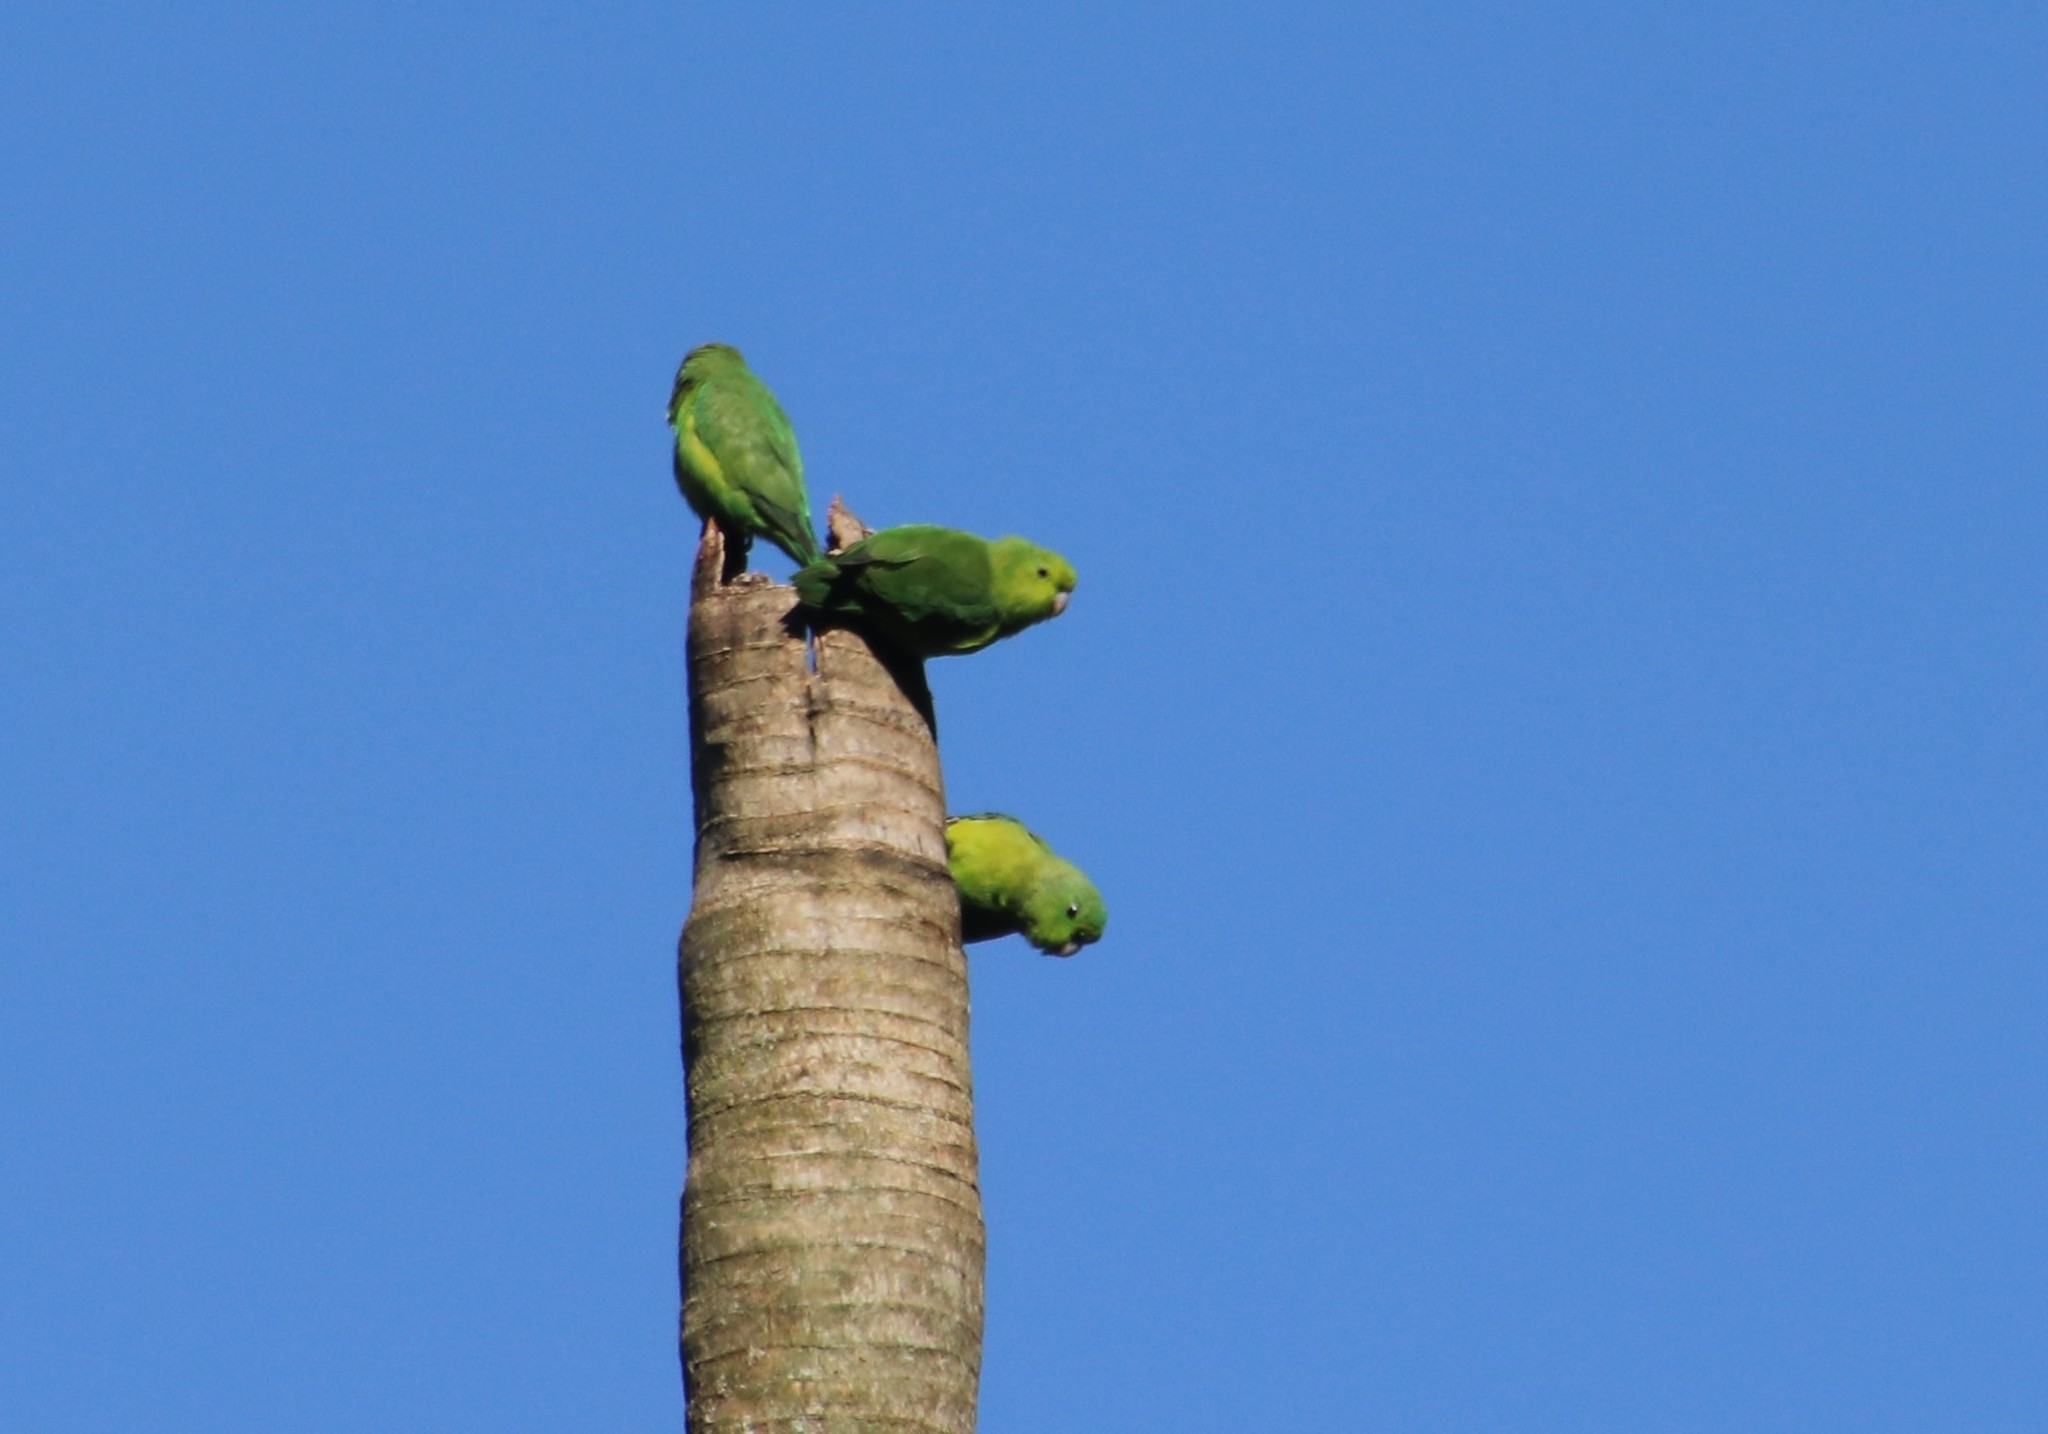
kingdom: Animalia
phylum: Chordata
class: Aves
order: Psittaciformes
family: Psittacidae
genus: Forpus
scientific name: Forpus xanthopterygius
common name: Blue-winged parrotlet
